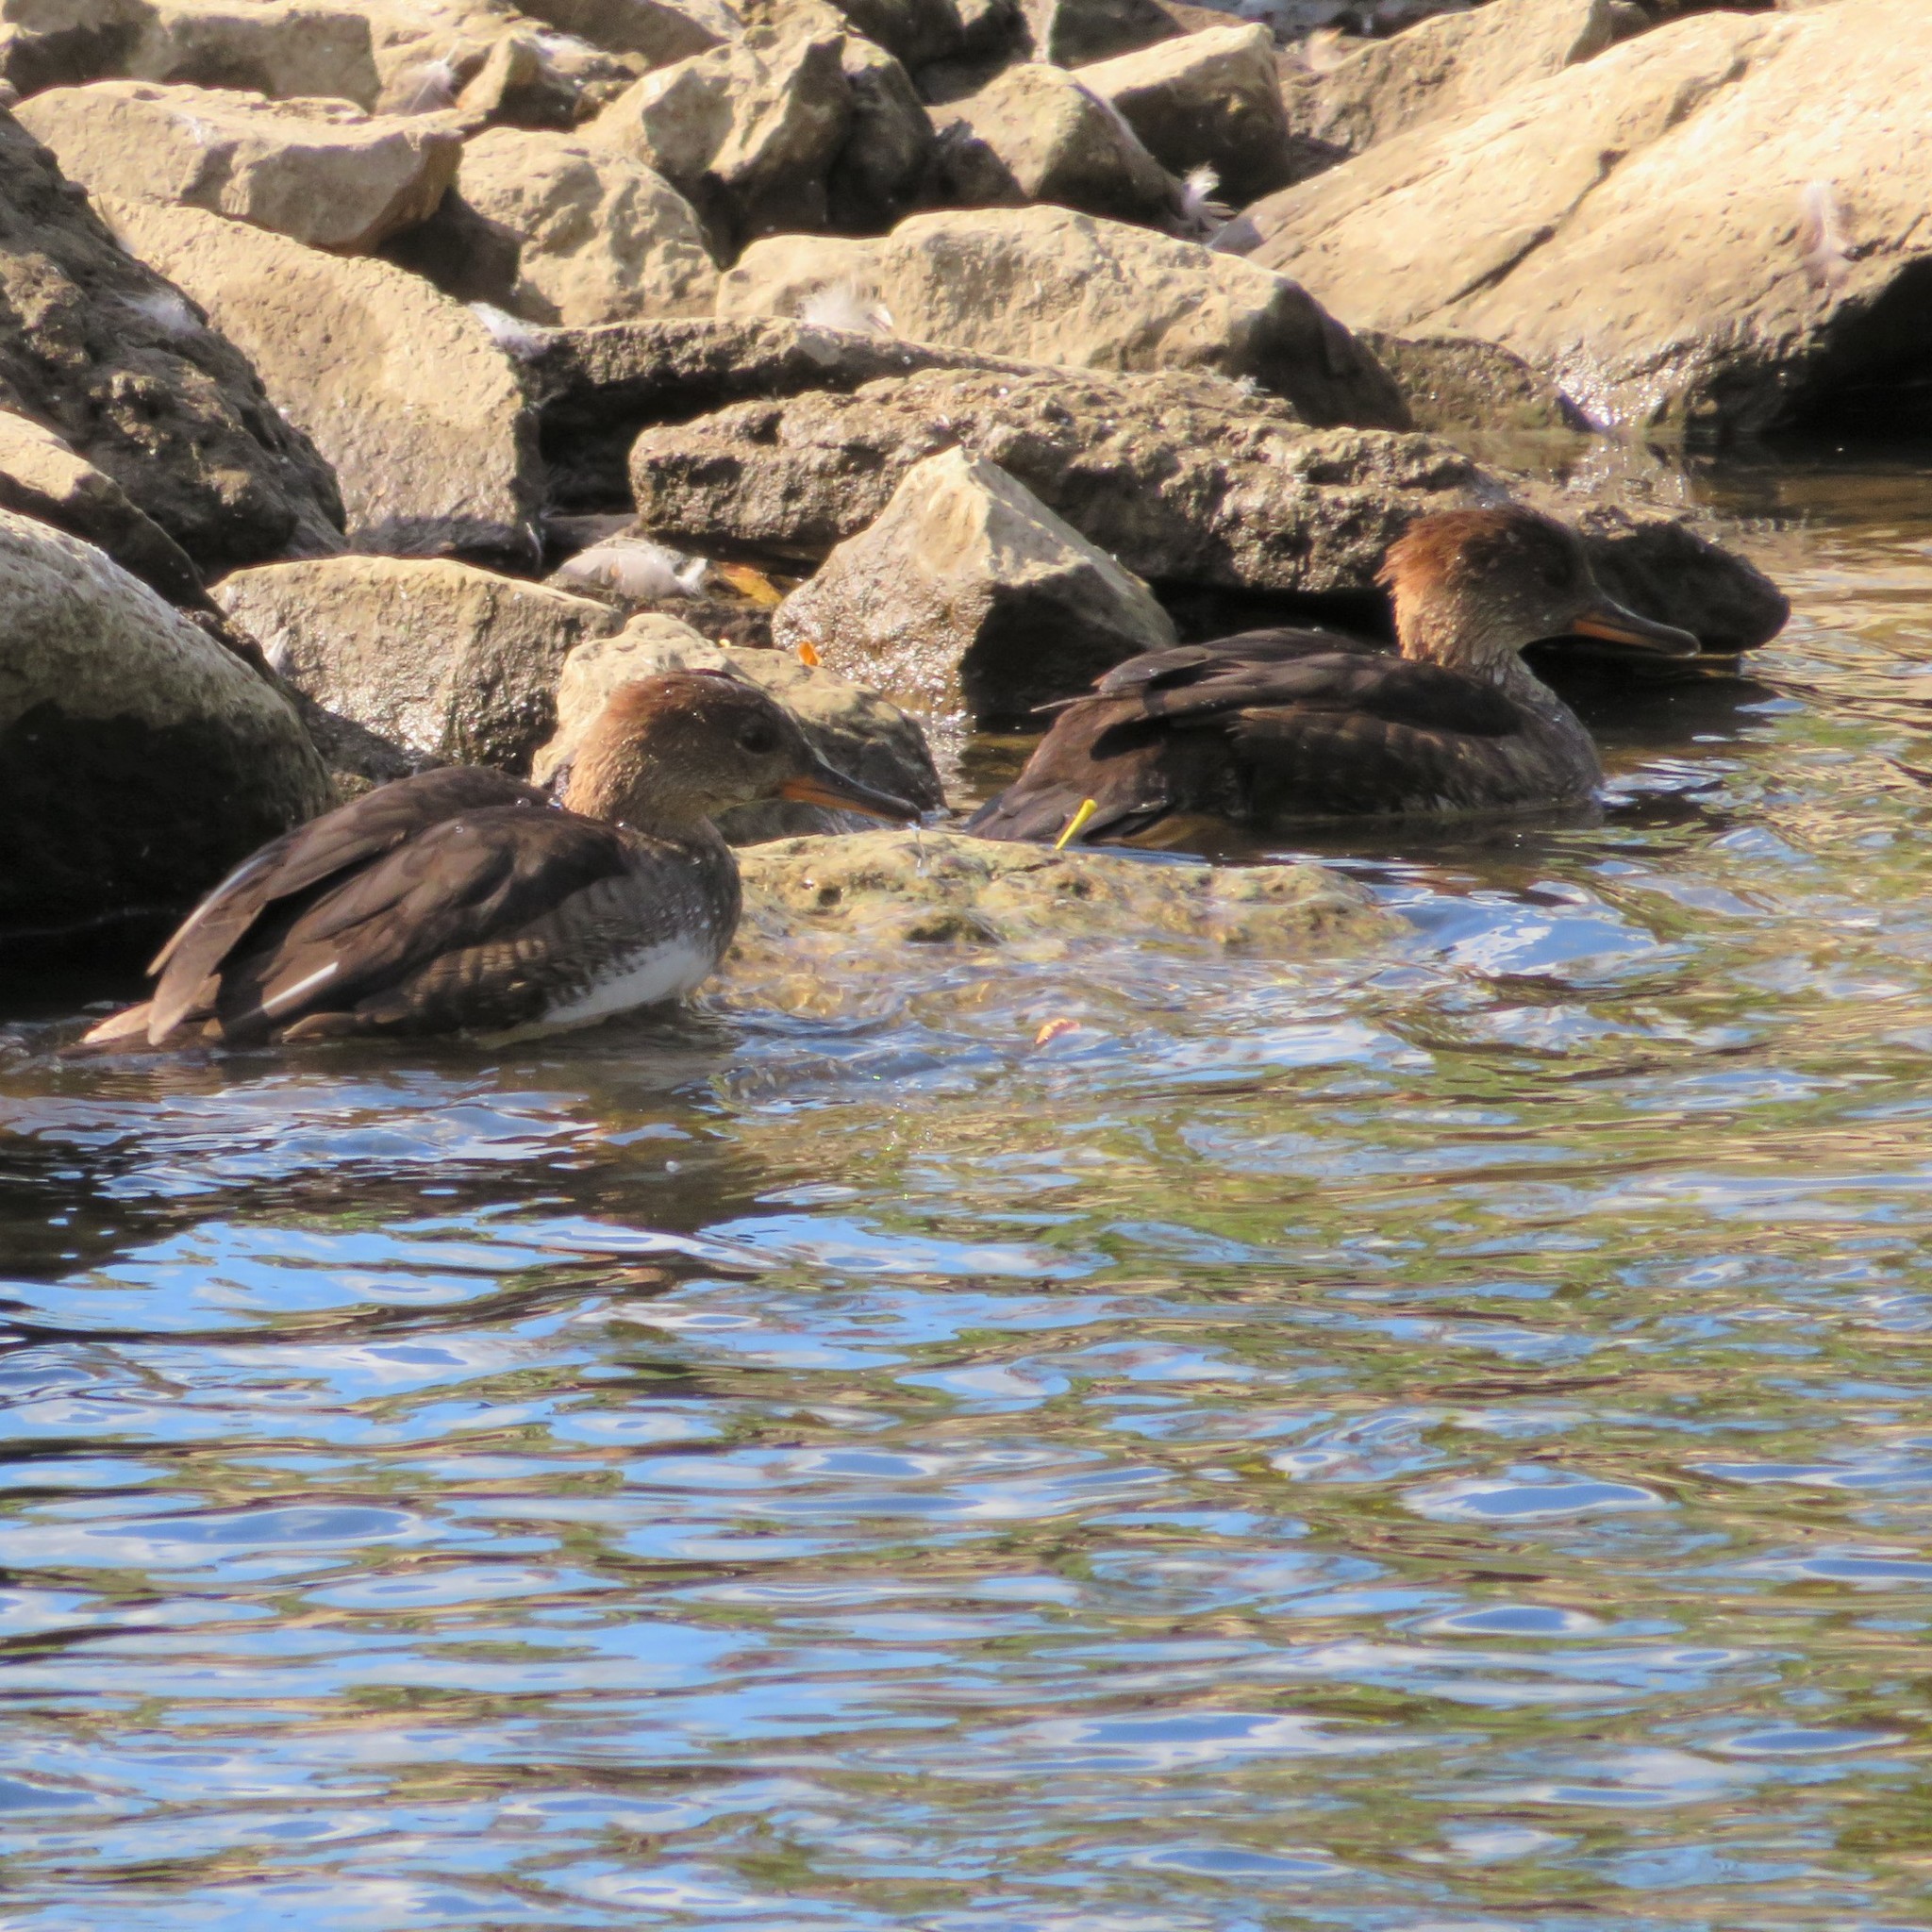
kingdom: Animalia
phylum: Chordata
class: Aves
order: Anseriformes
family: Anatidae
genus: Lophodytes
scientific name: Lophodytes cucullatus
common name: Hooded merganser
